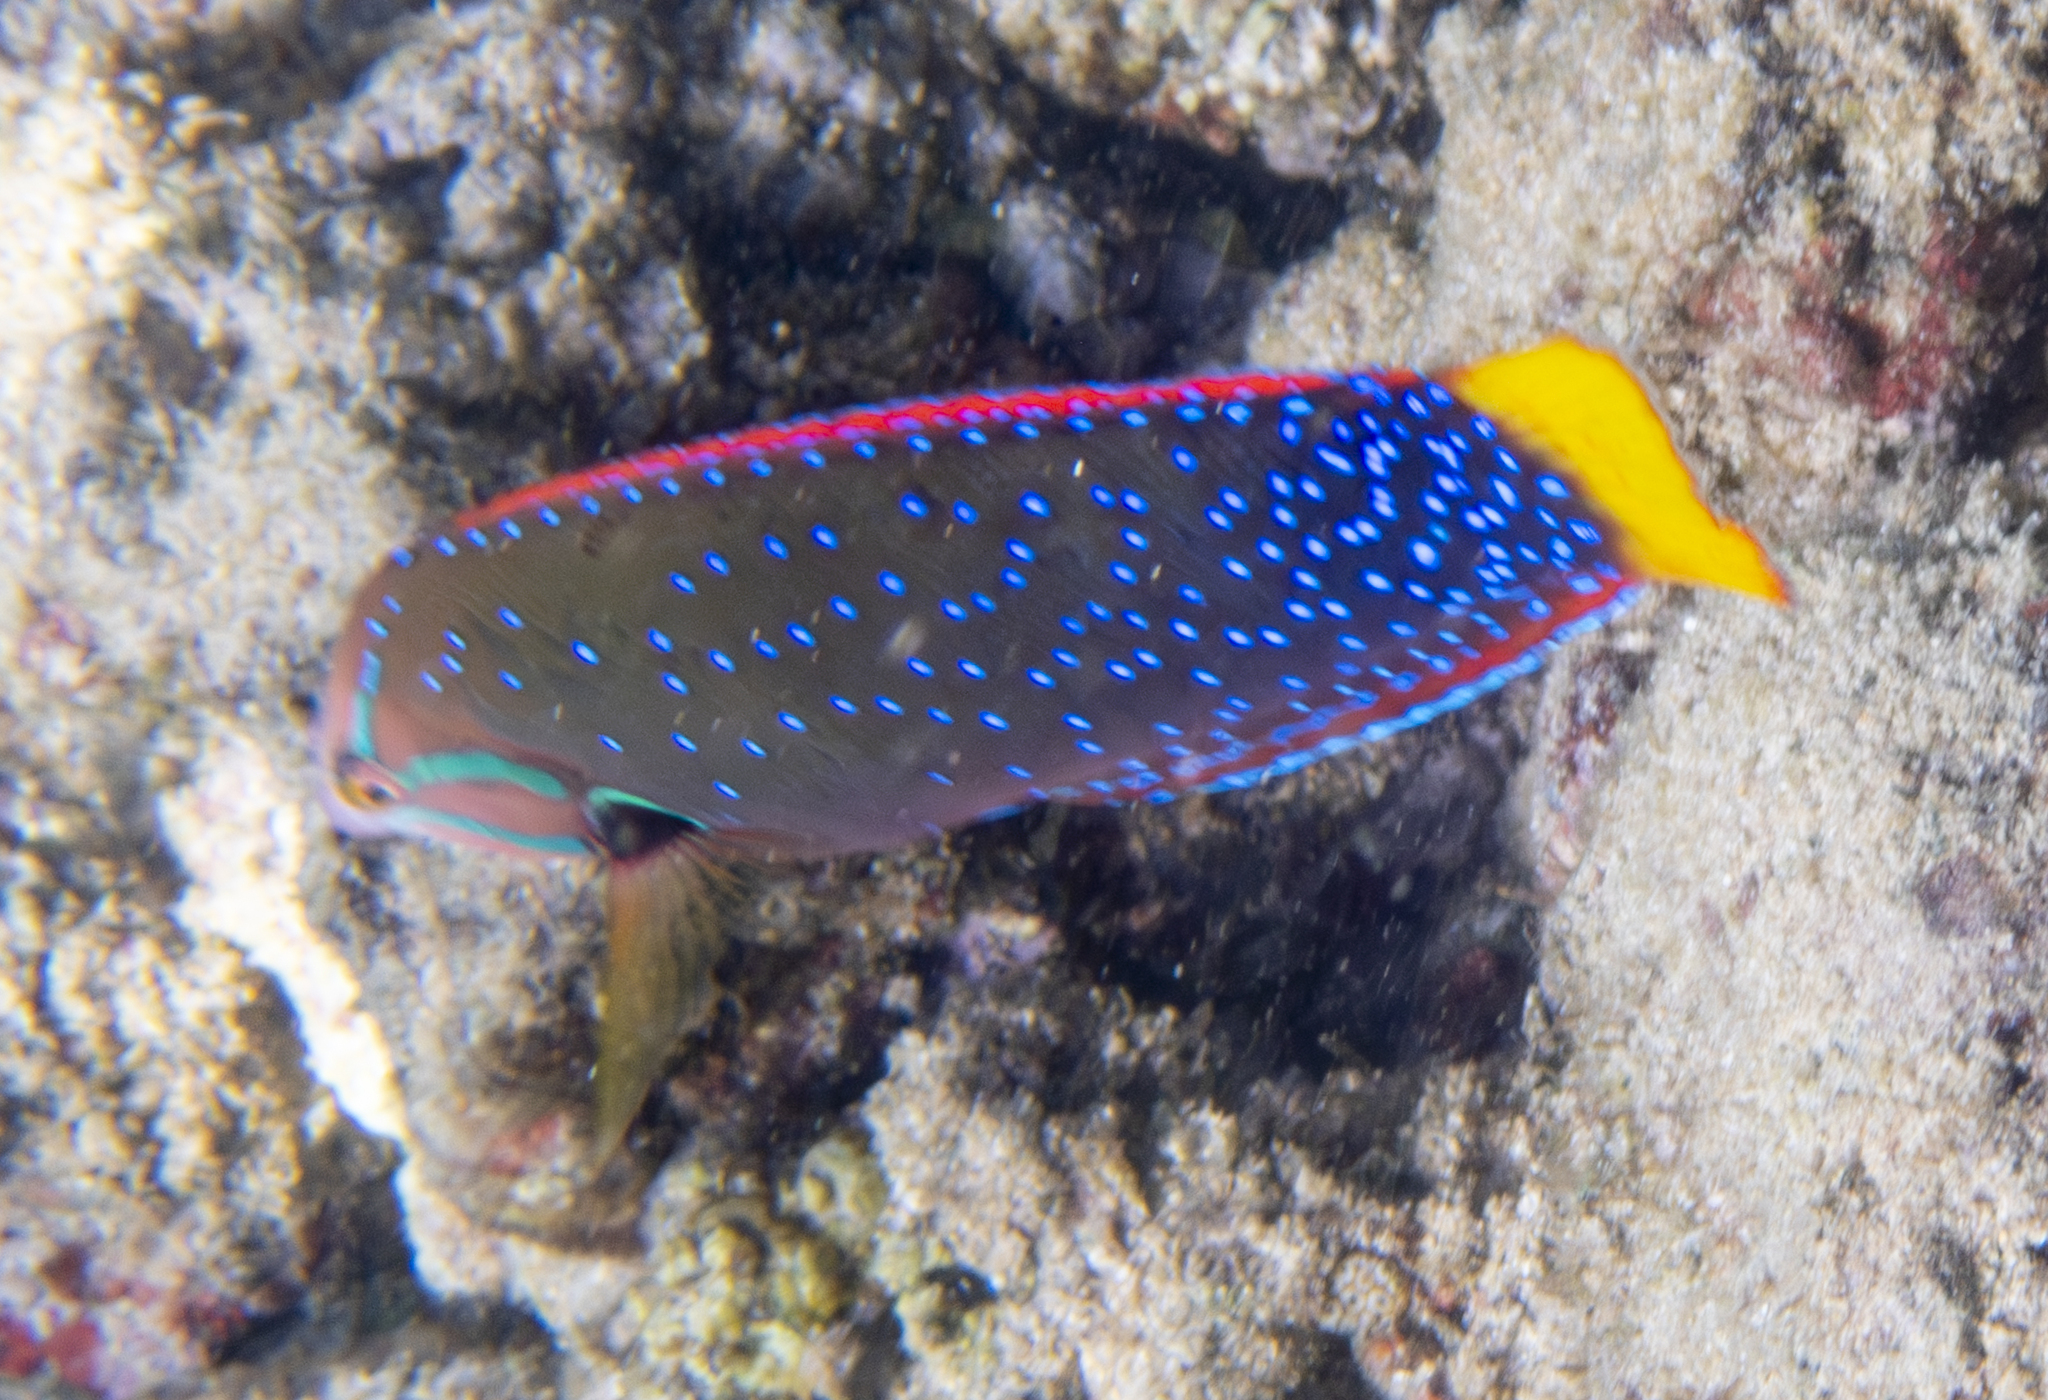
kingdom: Animalia
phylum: Chordata
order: Perciformes
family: Labridae
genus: Coris
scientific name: Coris gaimard
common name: Yellowtail coris
